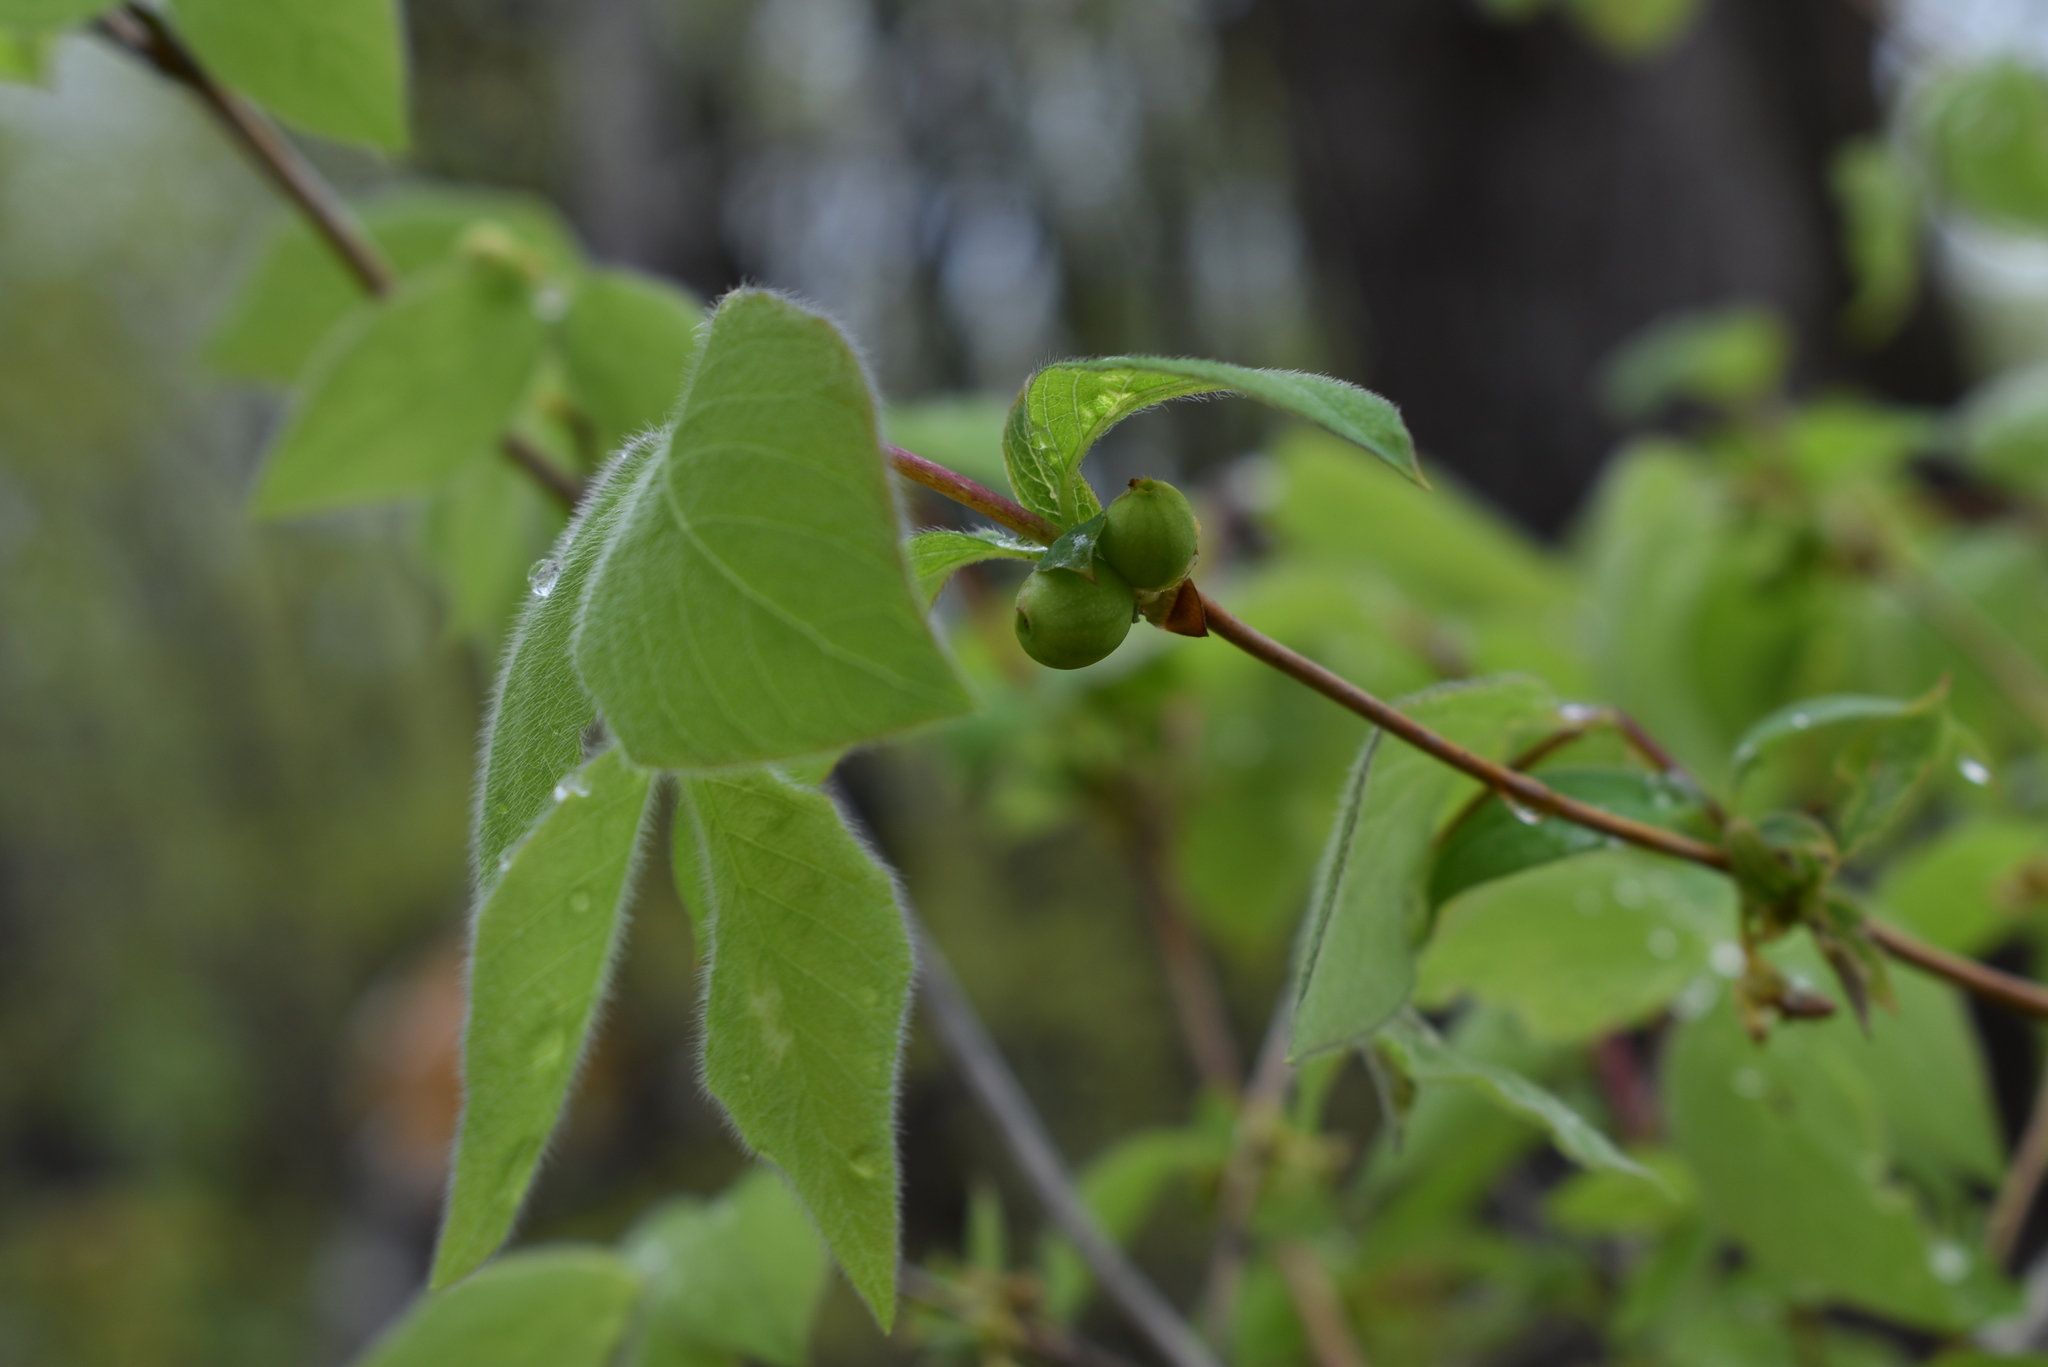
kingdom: Plantae
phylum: Tracheophyta
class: Magnoliopsida
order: Dipsacales
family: Caprifoliaceae
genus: Lonicera
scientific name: Lonicera praeflorens
